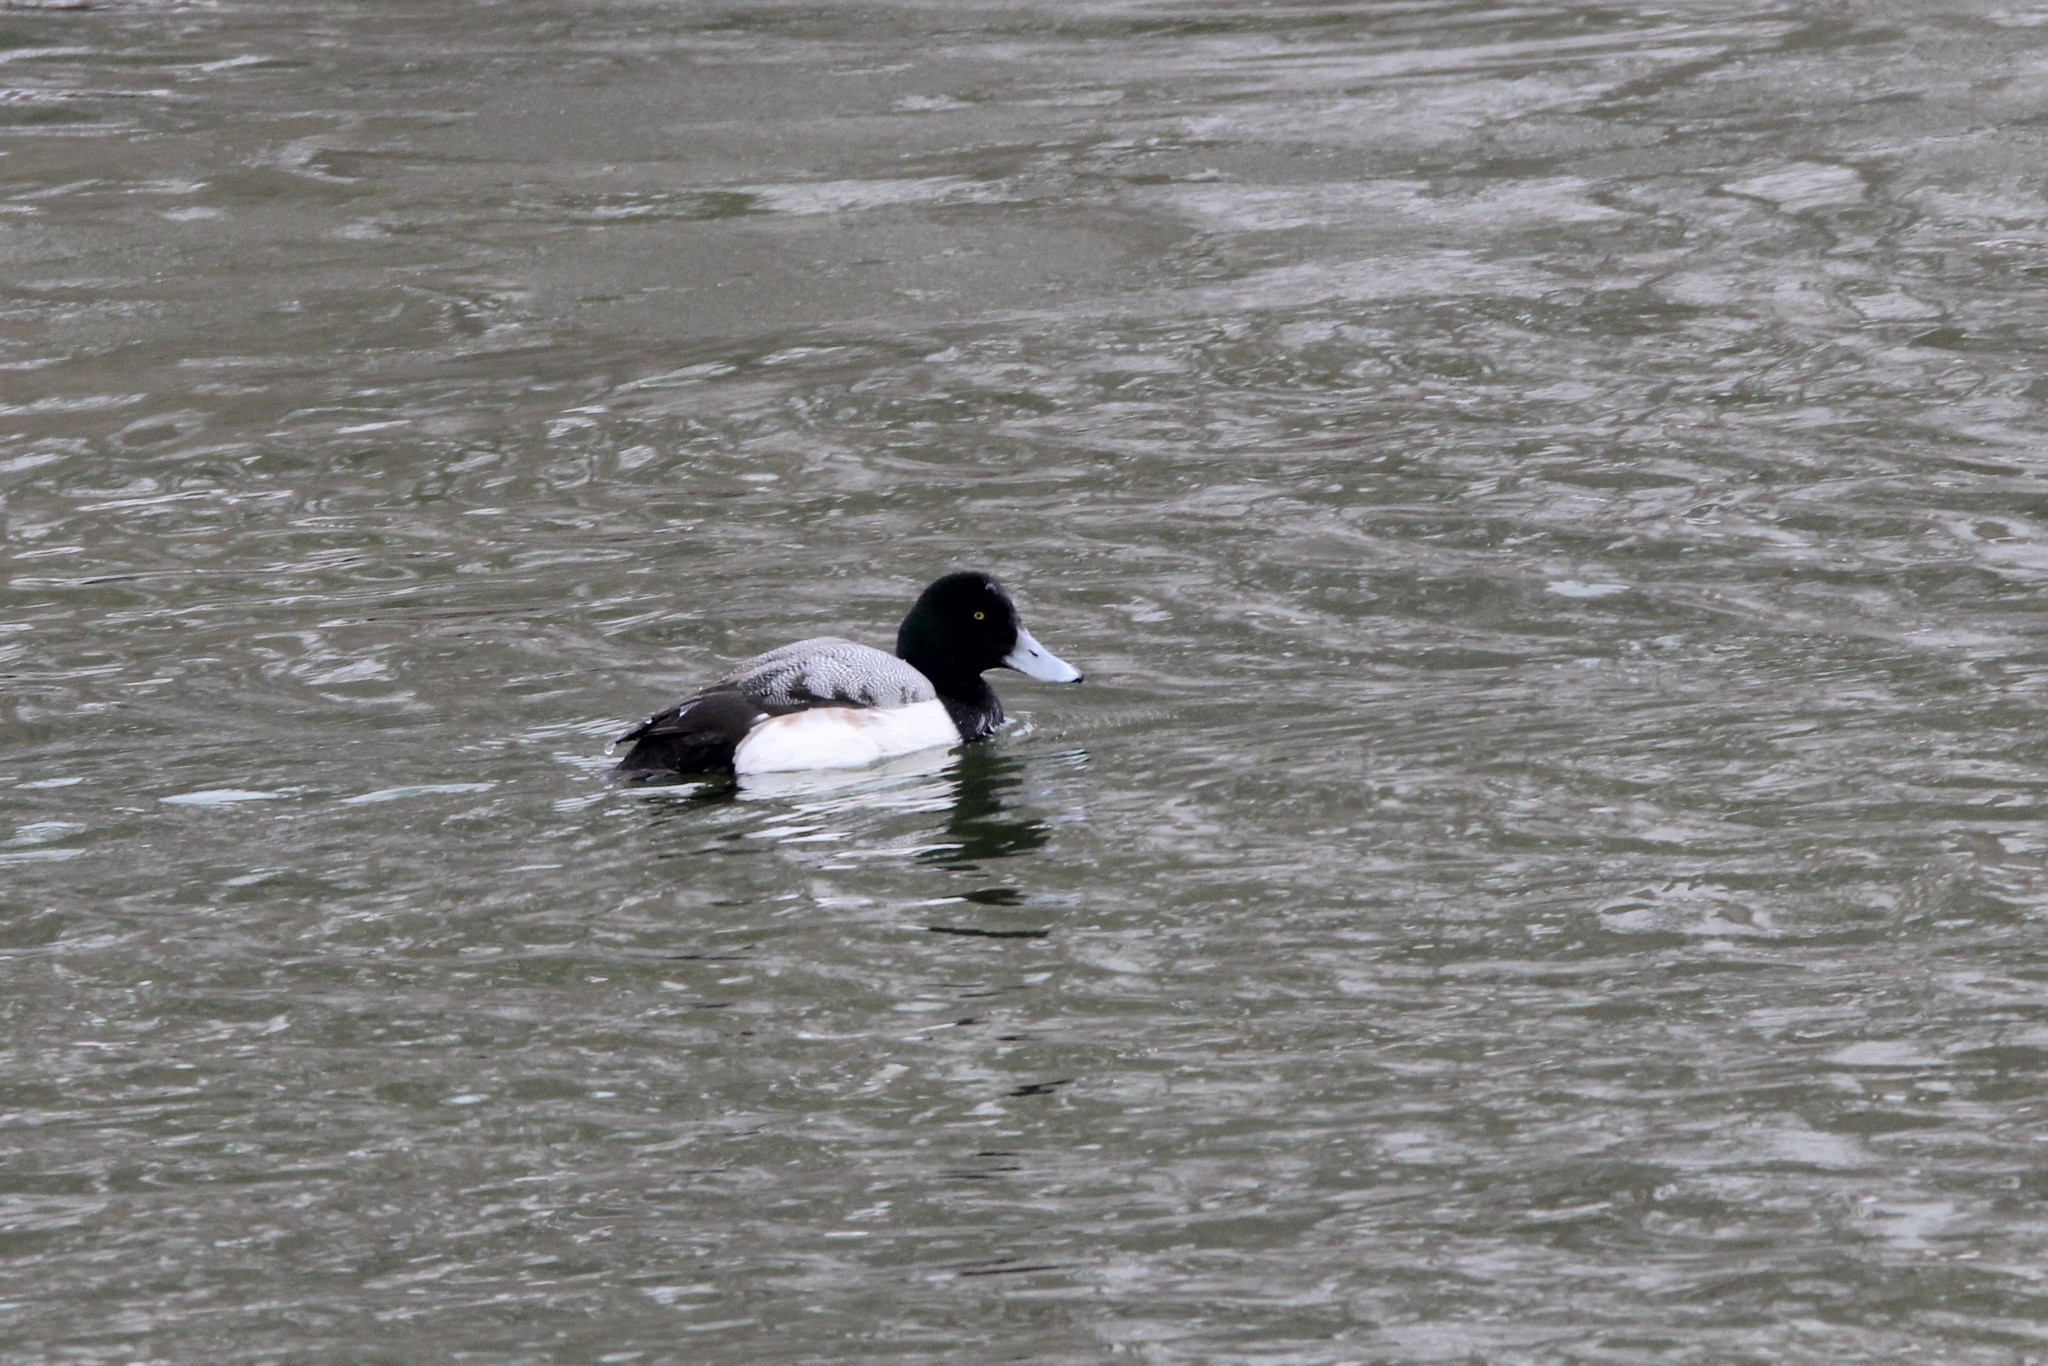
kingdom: Animalia
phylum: Chordata
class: Aves
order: Anseriformes
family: Anatidae
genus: Aythya
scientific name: Aythya marila
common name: Greater scaup
